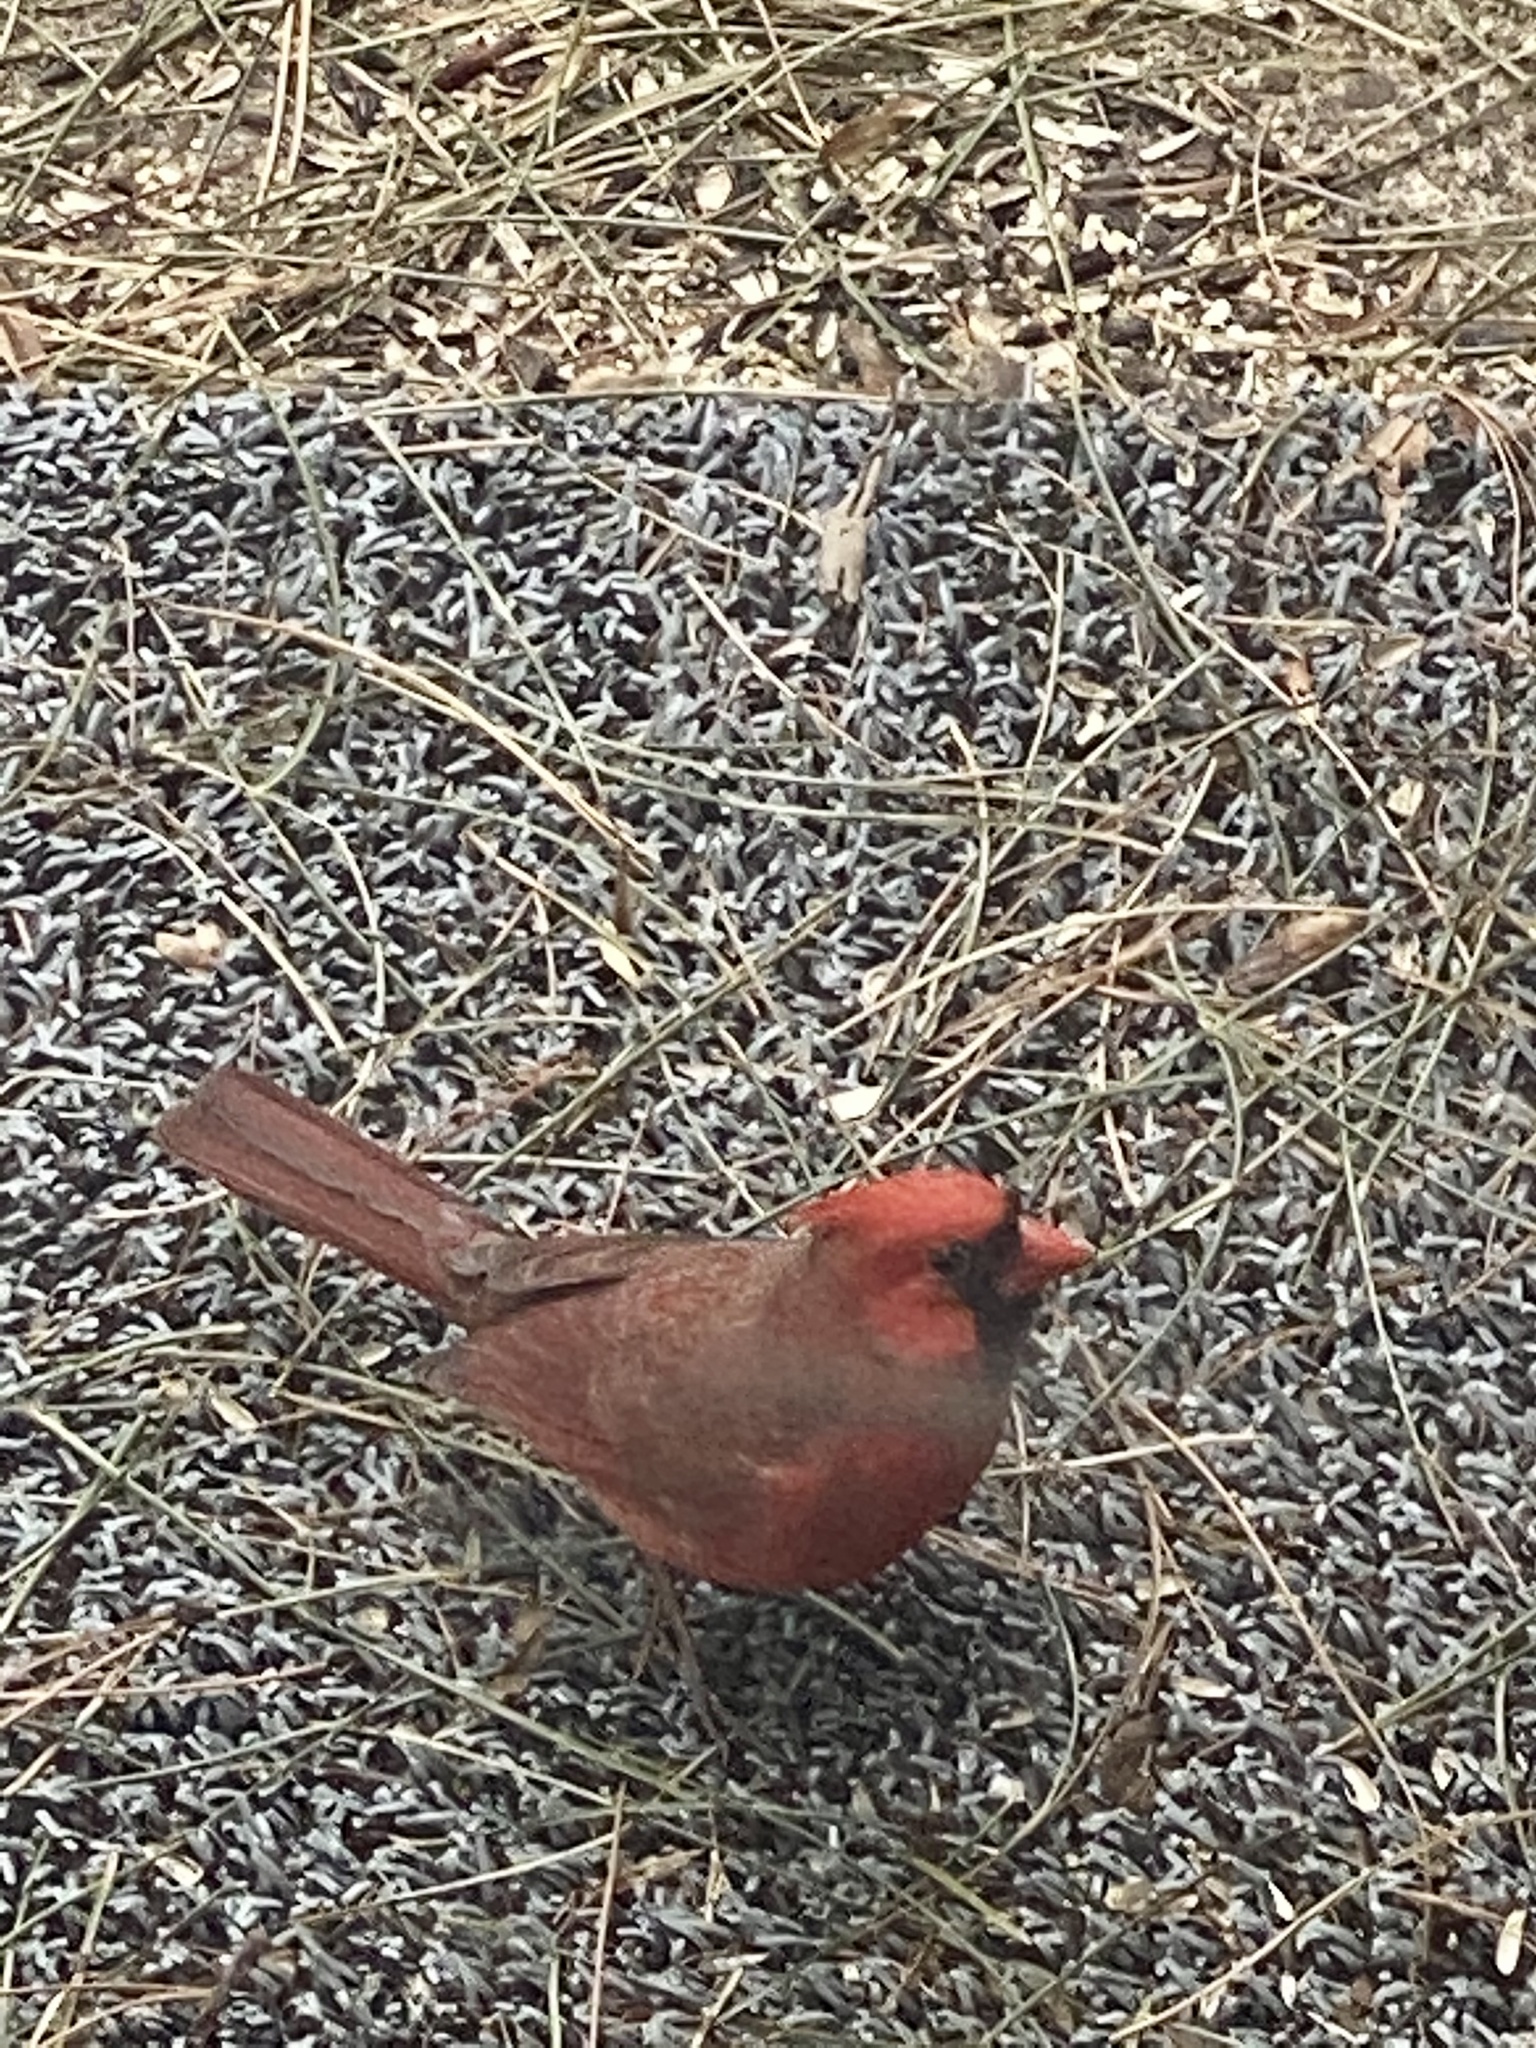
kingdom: Animalia
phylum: Chordata
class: Aves
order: Passeriformes
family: Cardinalidae
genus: Cardinalis
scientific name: Cardinalis cardinalis
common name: Northern cardinal
